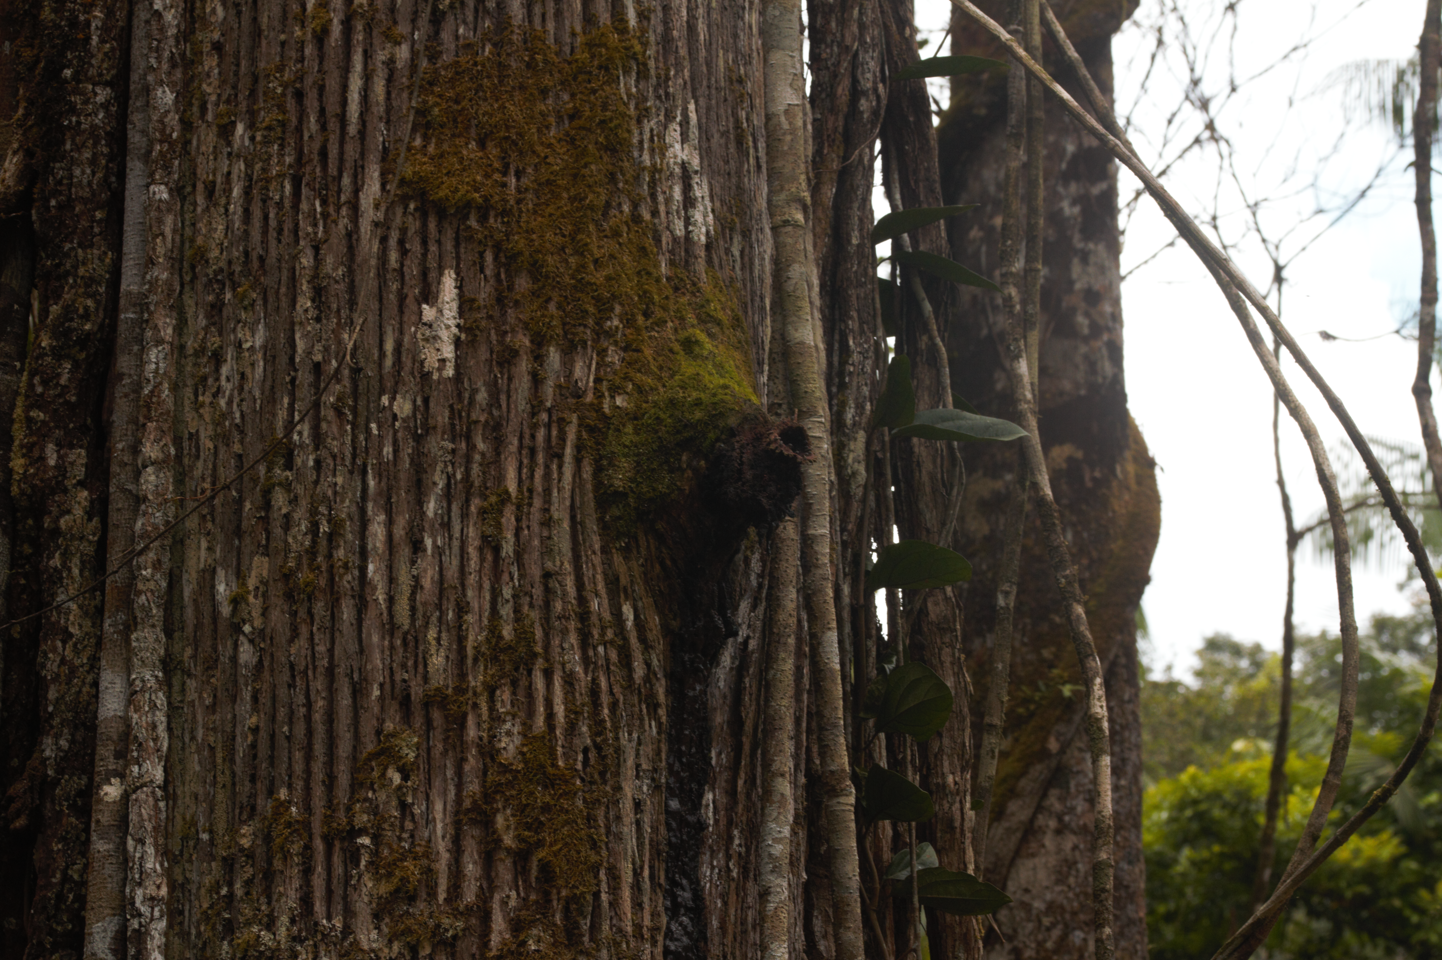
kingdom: Animalia
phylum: Arthropoda
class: Insecta
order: Hymenoptera
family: Apidae
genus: Apidae
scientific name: Apidae
